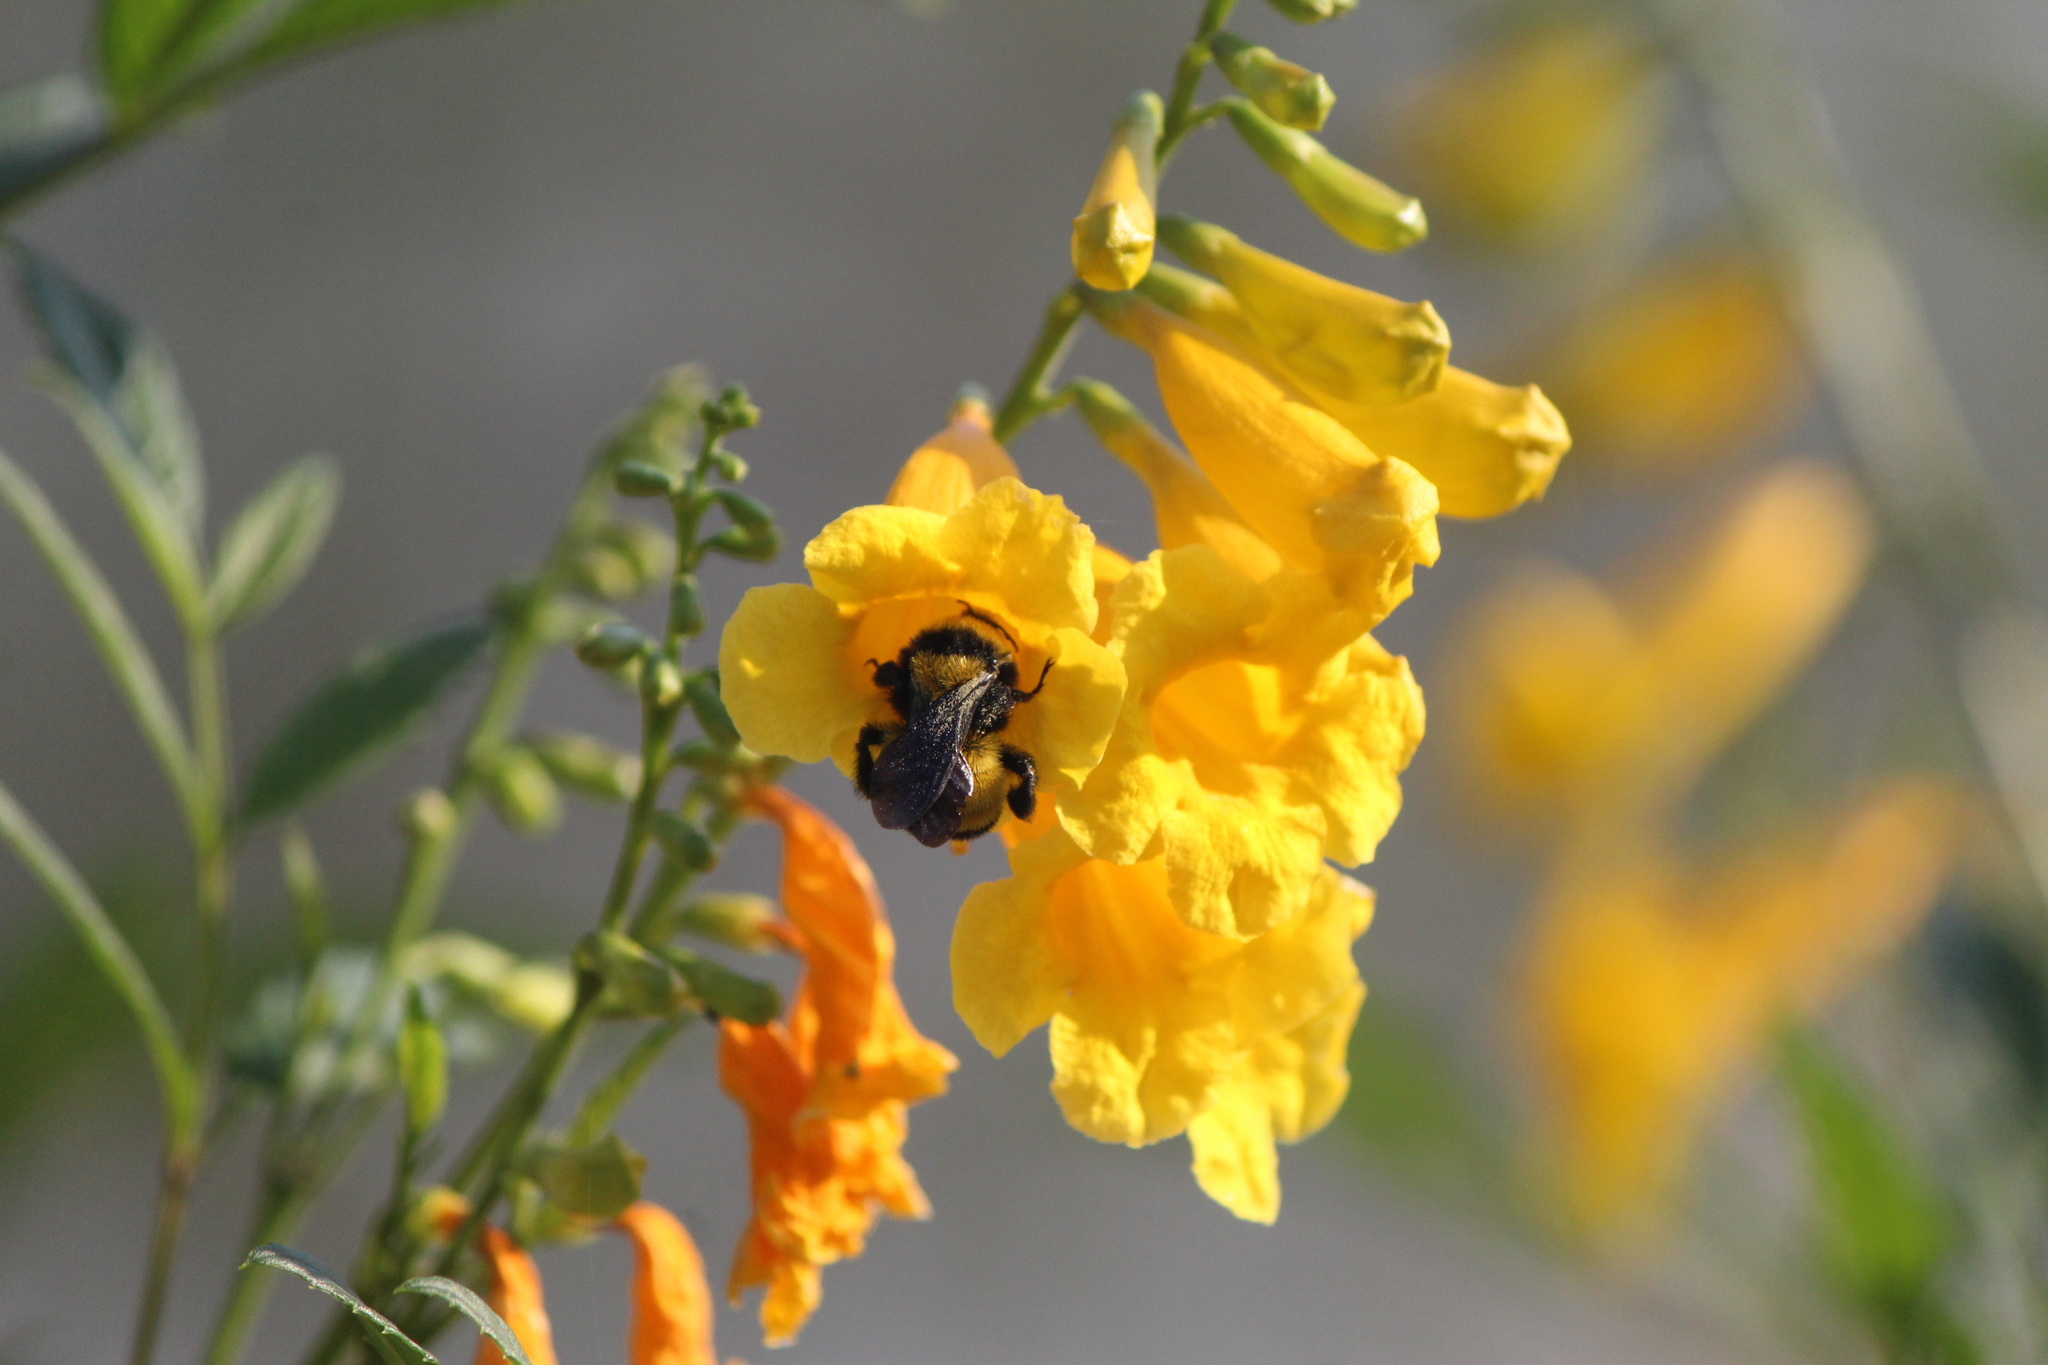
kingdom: Animalia
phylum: Arthropoda
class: Insecta
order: Hymenoptera
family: Apidae
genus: Bombus
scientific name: Bombus sonorus
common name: Sonoran bumble bee
